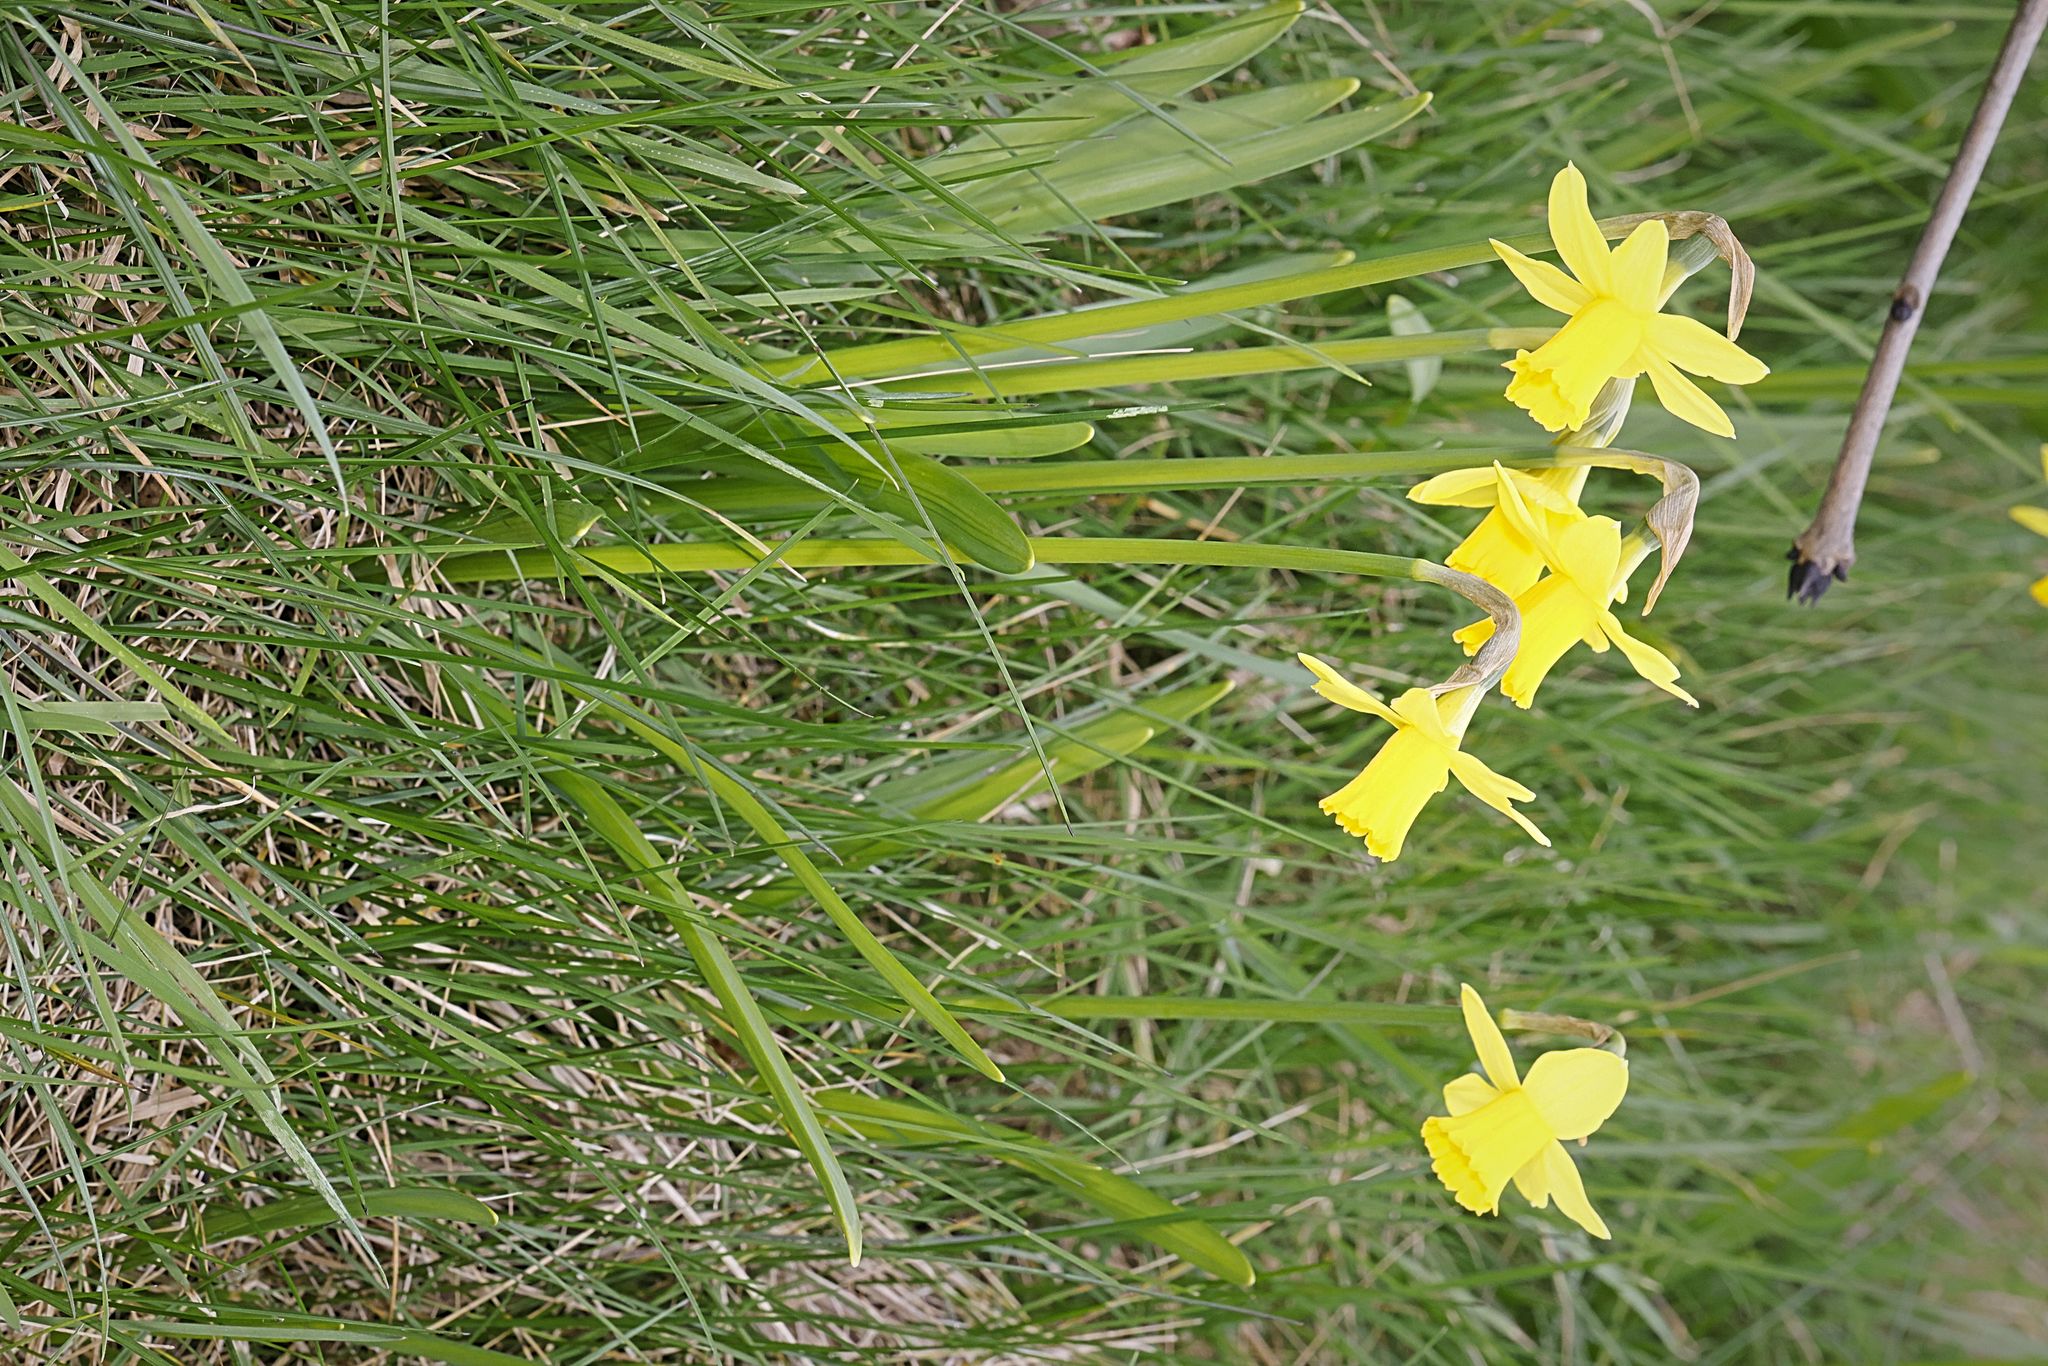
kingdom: Plantae
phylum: Tracheophyta
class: Liliopsida
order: Asparagales
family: Amaryllidaceae
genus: Narcissus
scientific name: Narcissus
